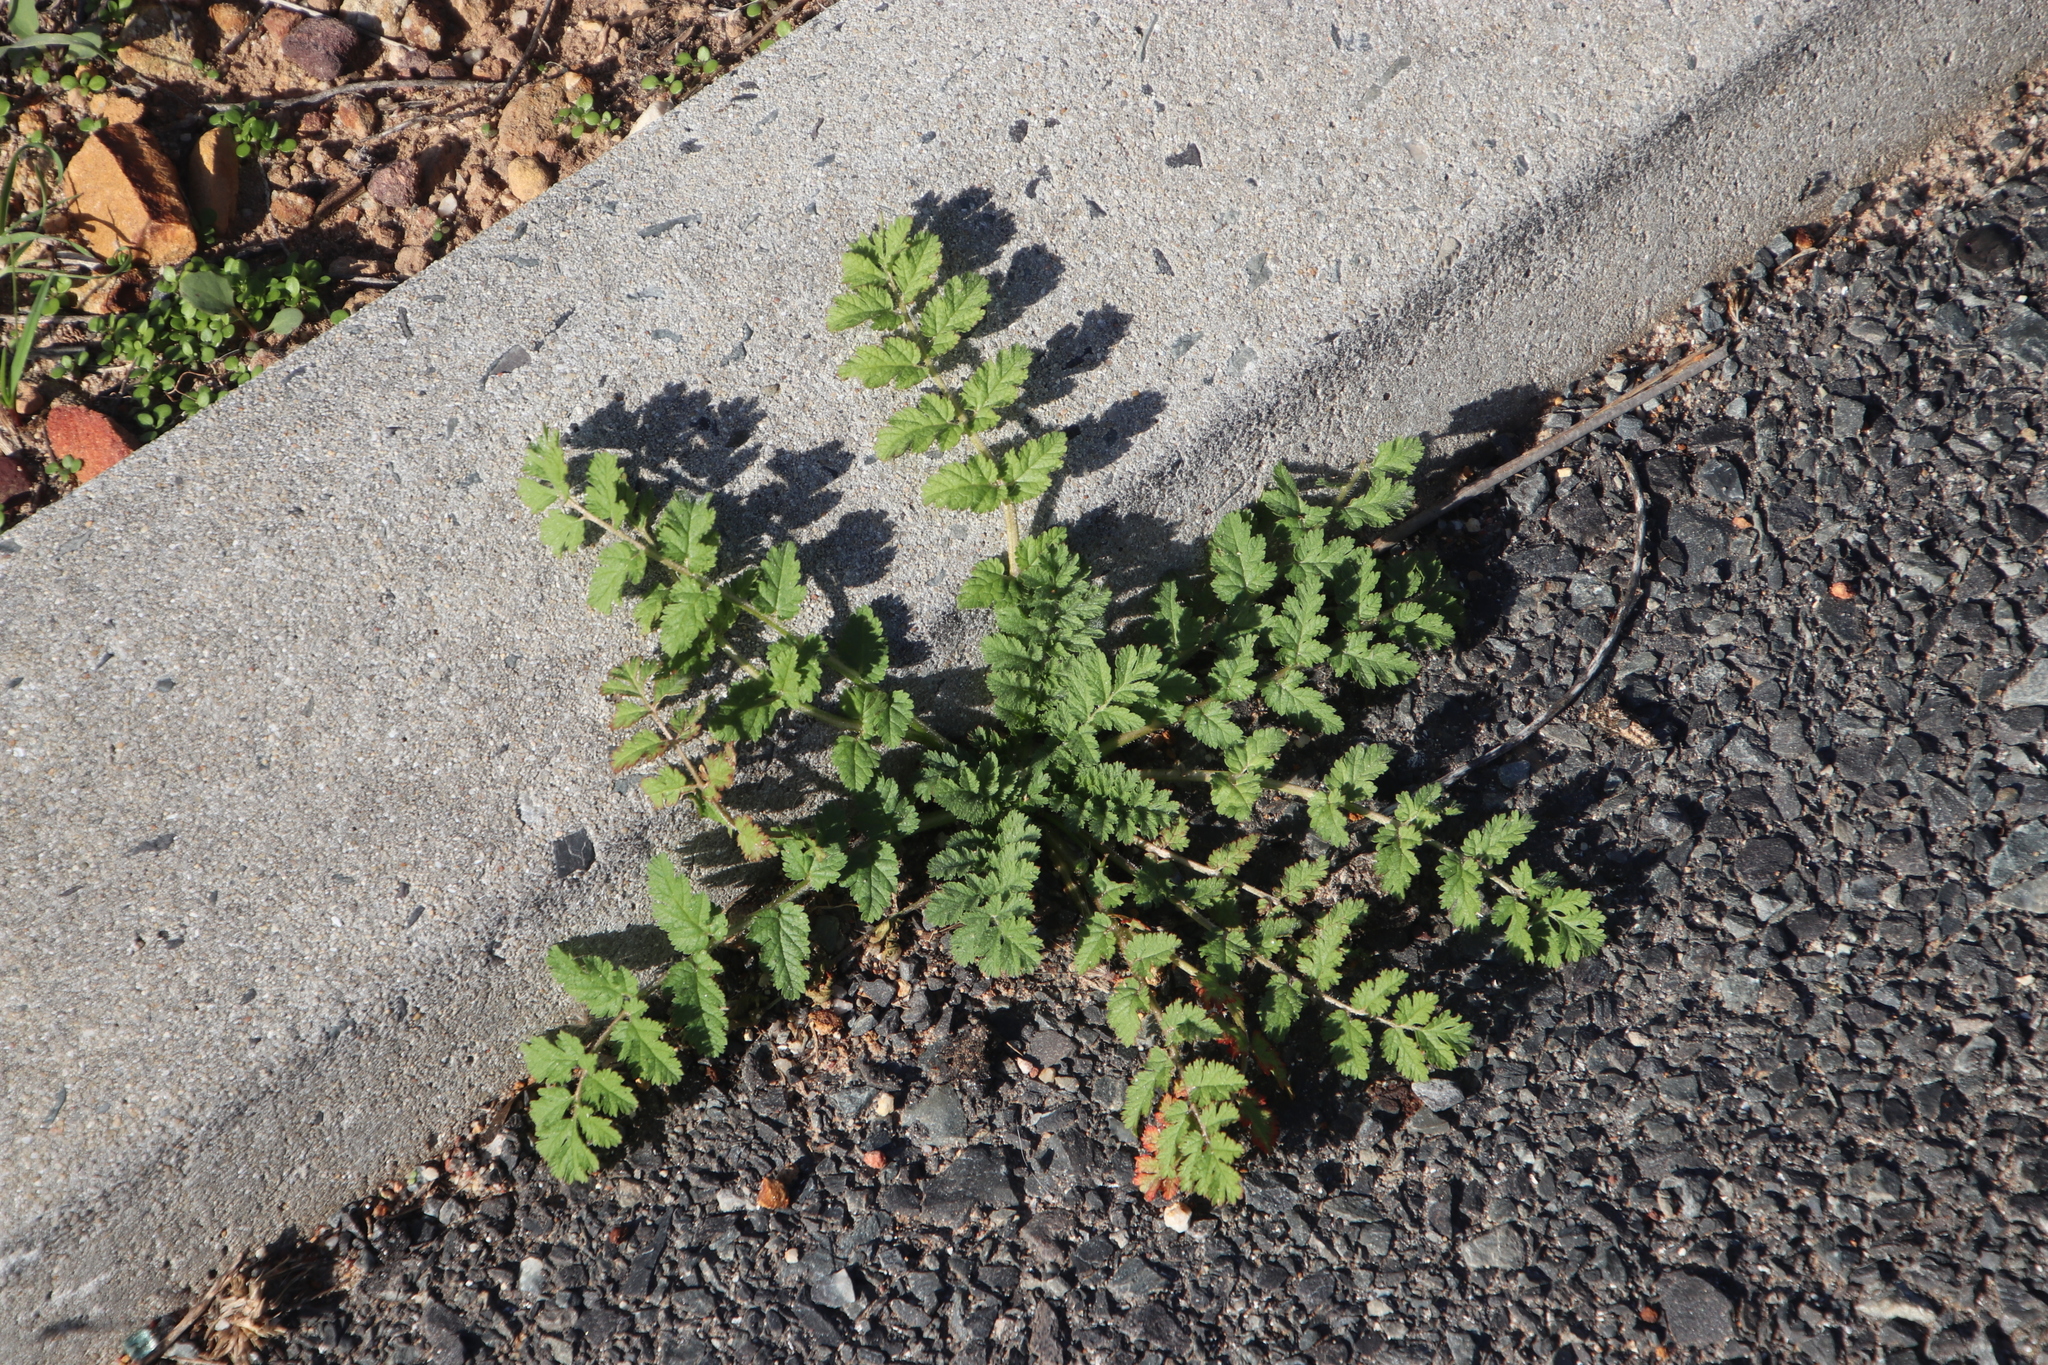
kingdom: Plantae
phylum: Tracheophyta
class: Magnoliopsida
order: Geraniales
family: Geraniaceae
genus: Erodium
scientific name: Erodium moschatum
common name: Musk stork's-bill
